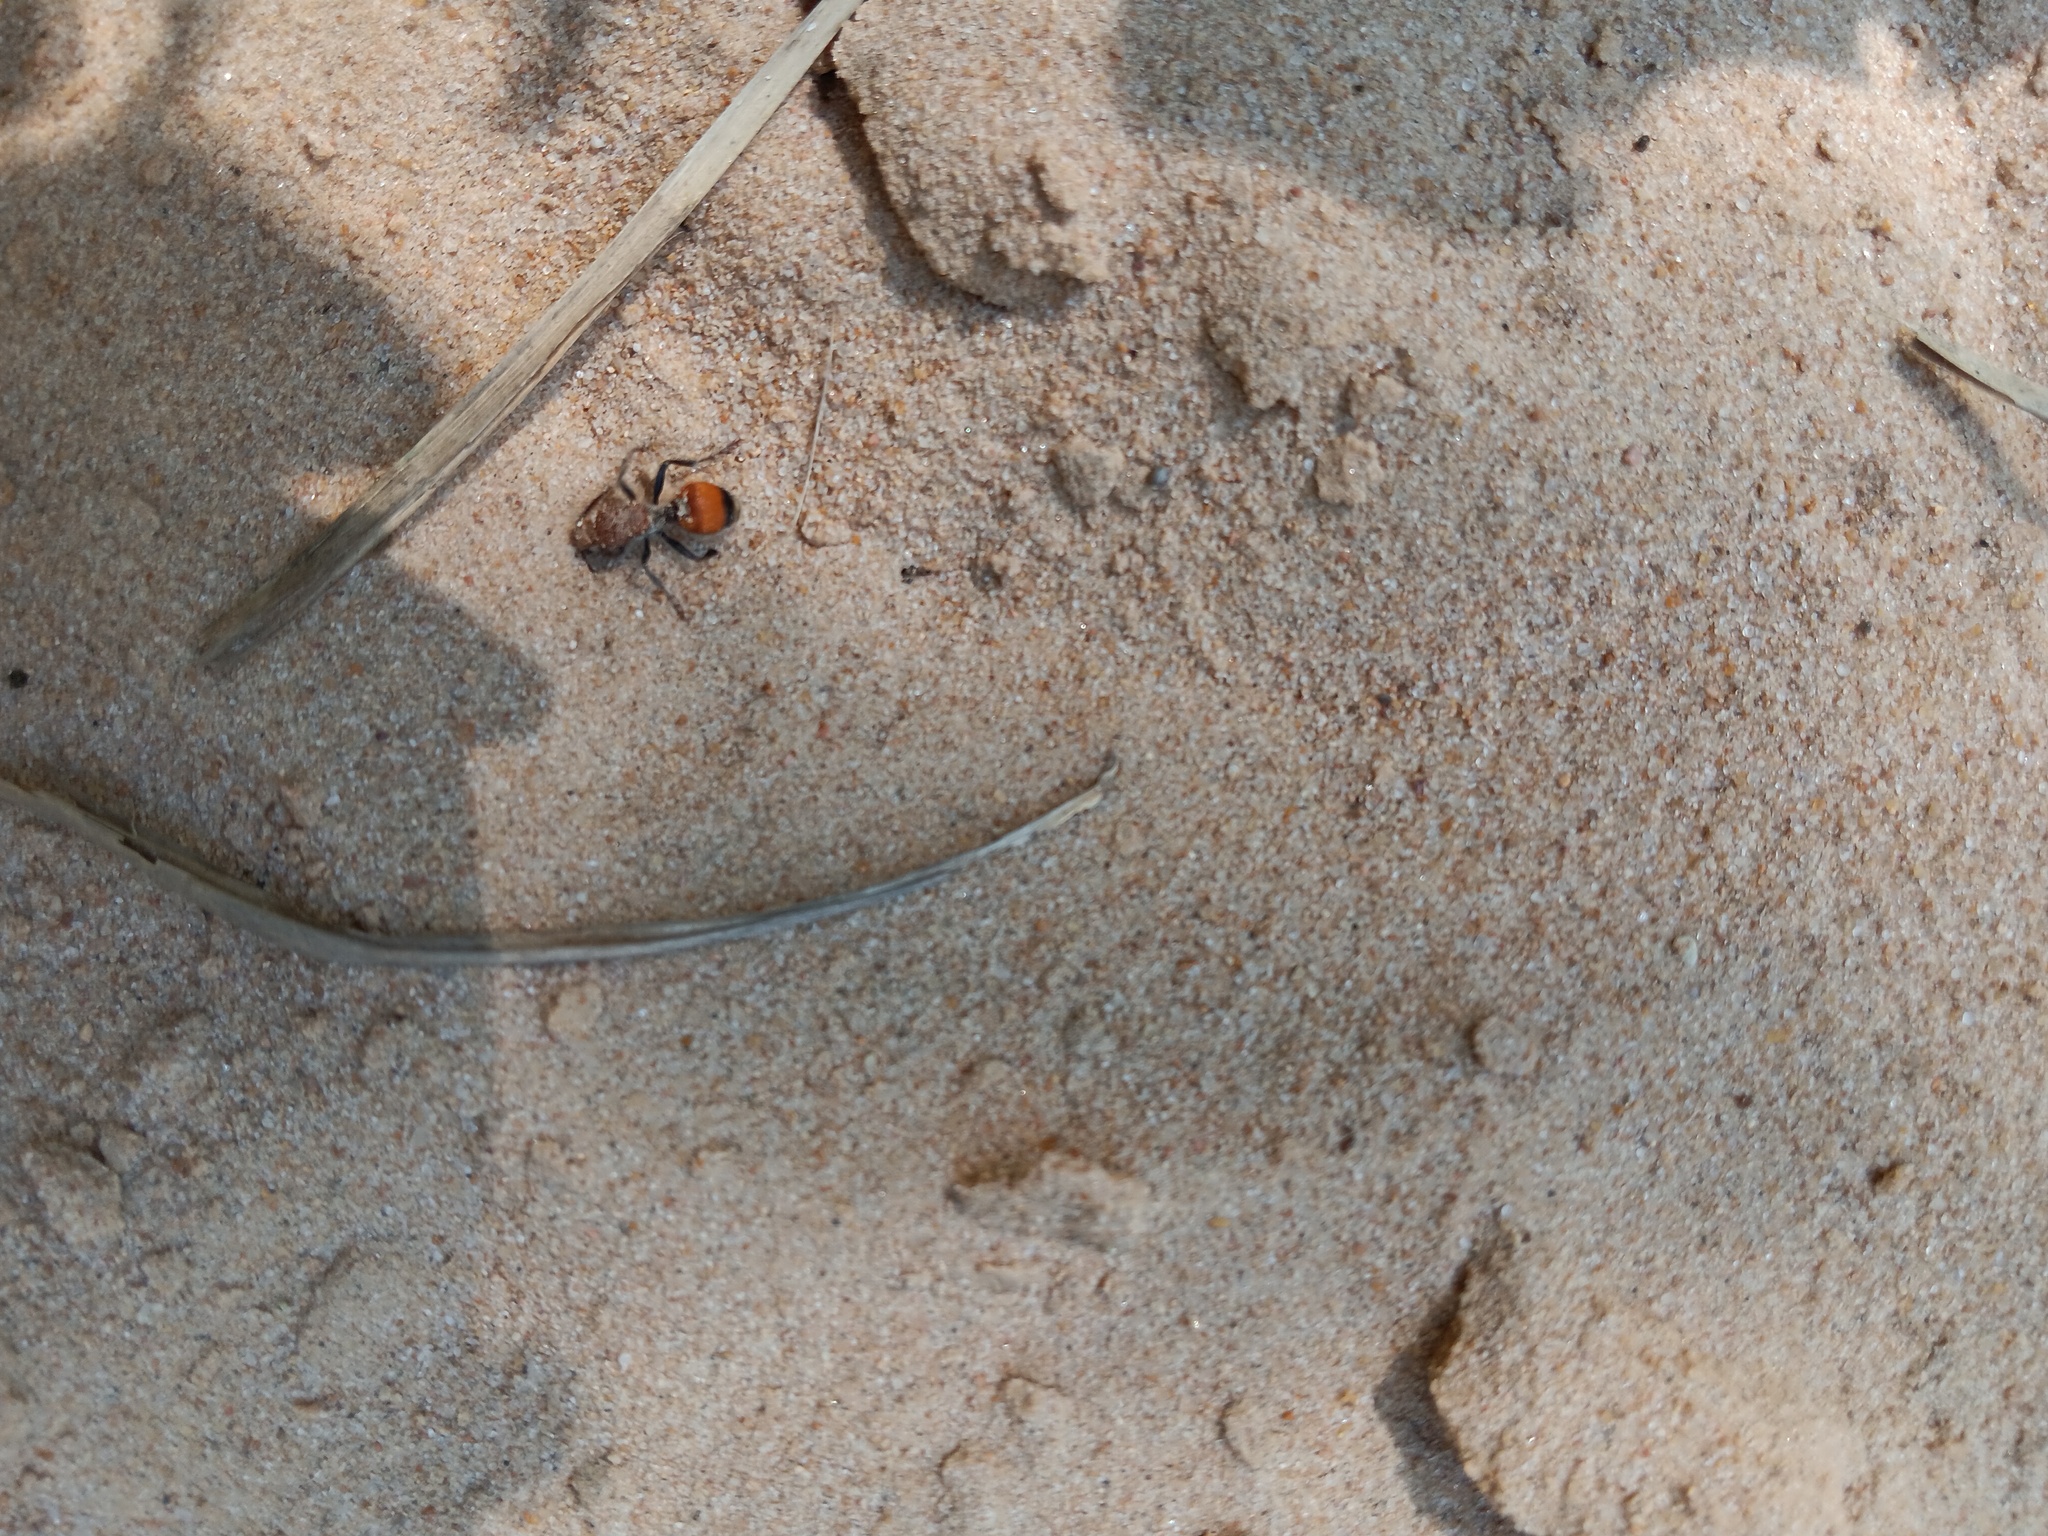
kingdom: Animalia
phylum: Arthropoda
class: Insecta
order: Hymenoptera
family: Mutillidae
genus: Dasymutilla
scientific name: Dasymutilla
